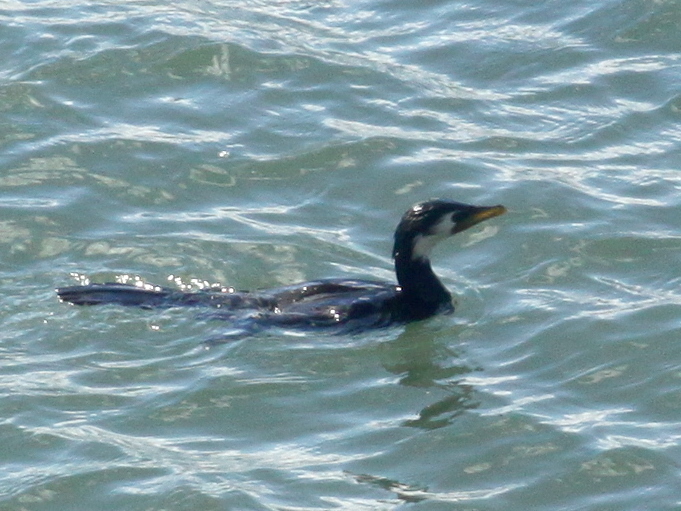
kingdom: Animalia
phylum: Chordata
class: Aves
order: Suliformes
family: Phalacrocoracidae
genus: Microcarbo
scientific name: Microcarbo melanoleucos
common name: Little pied cormorant
